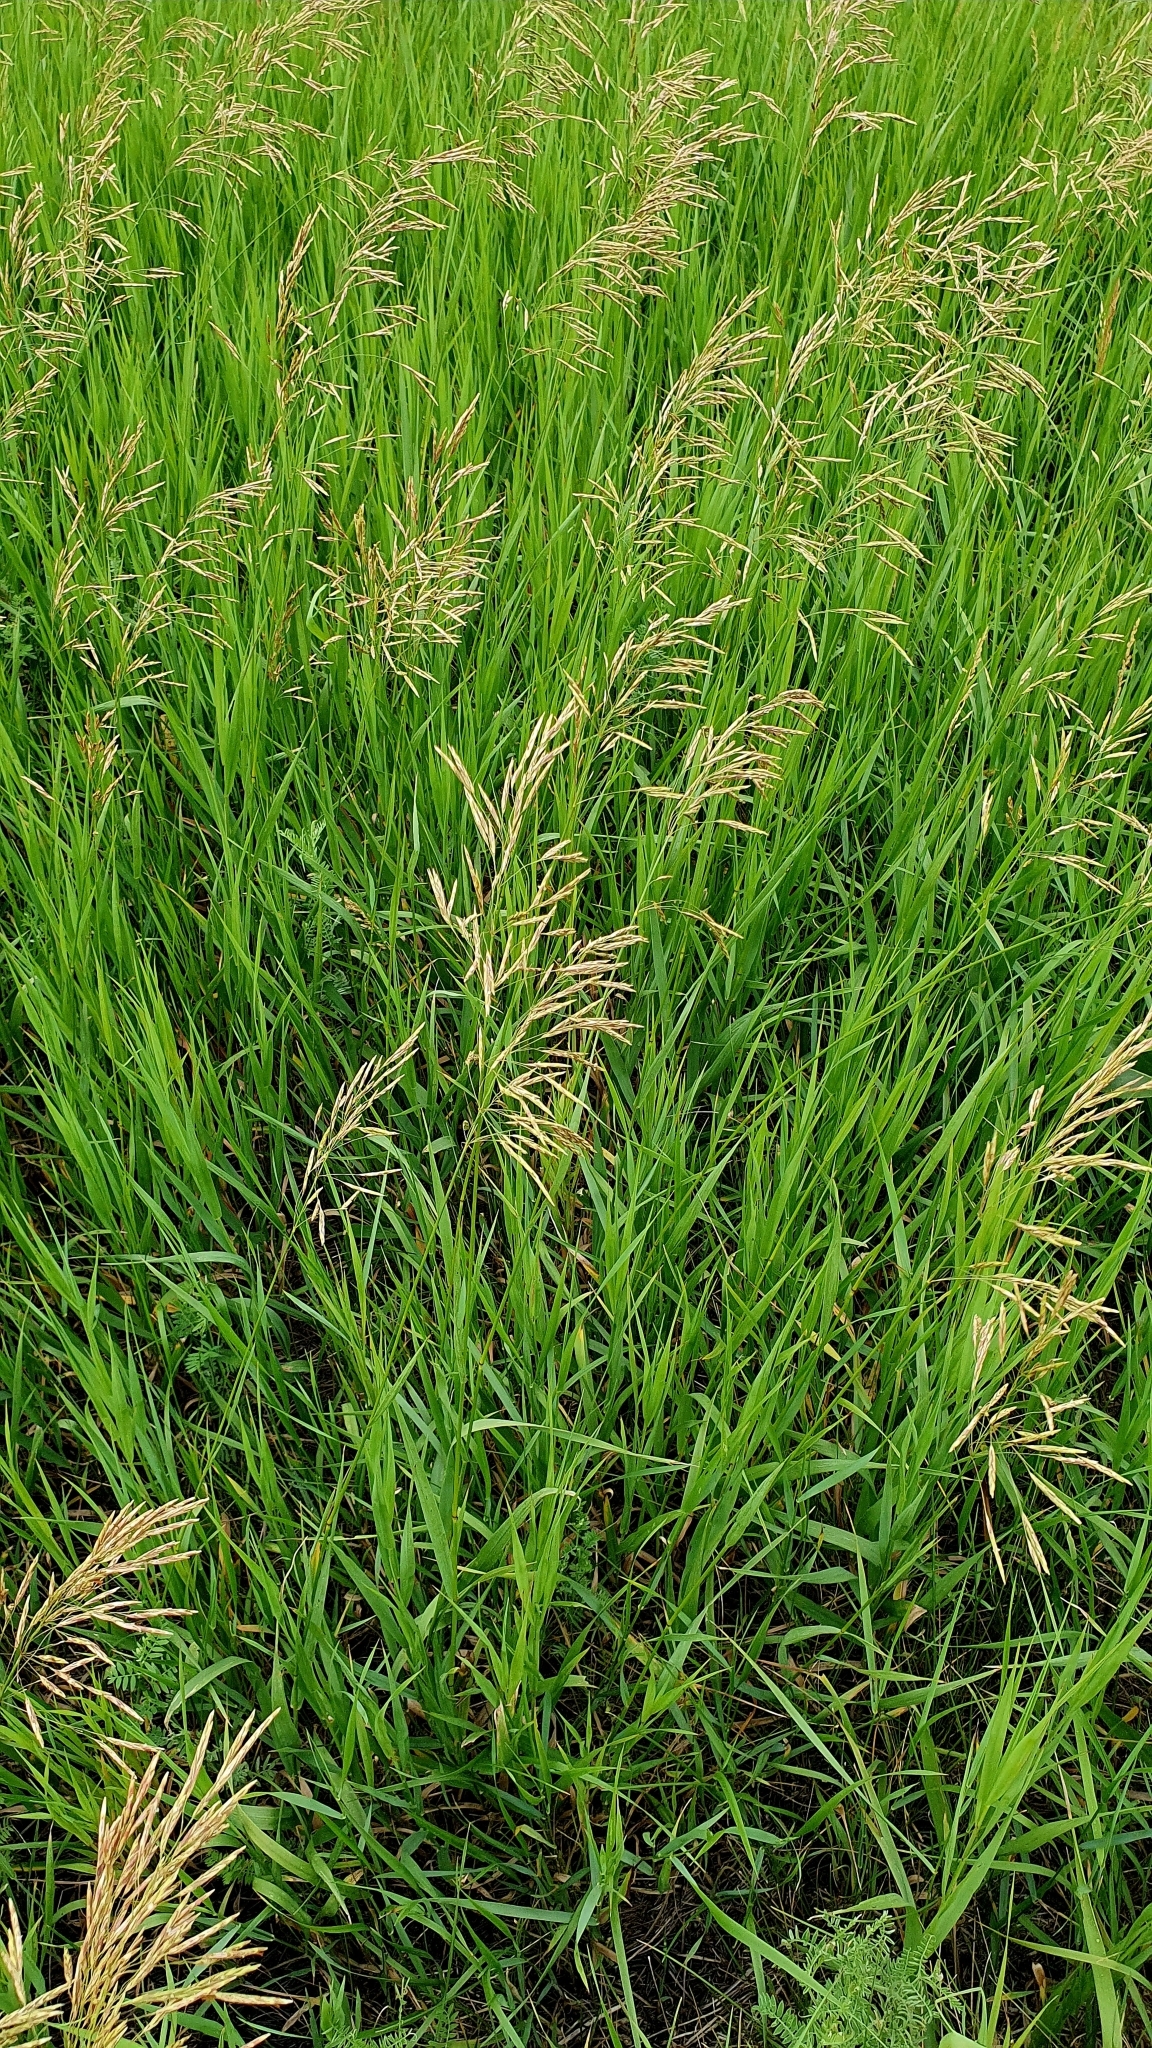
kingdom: Plantae
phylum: Tracheophyta
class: Liliopsida
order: Poales
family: Poaceae
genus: Bromus
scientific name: Bromus inermis
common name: Smooth brome
